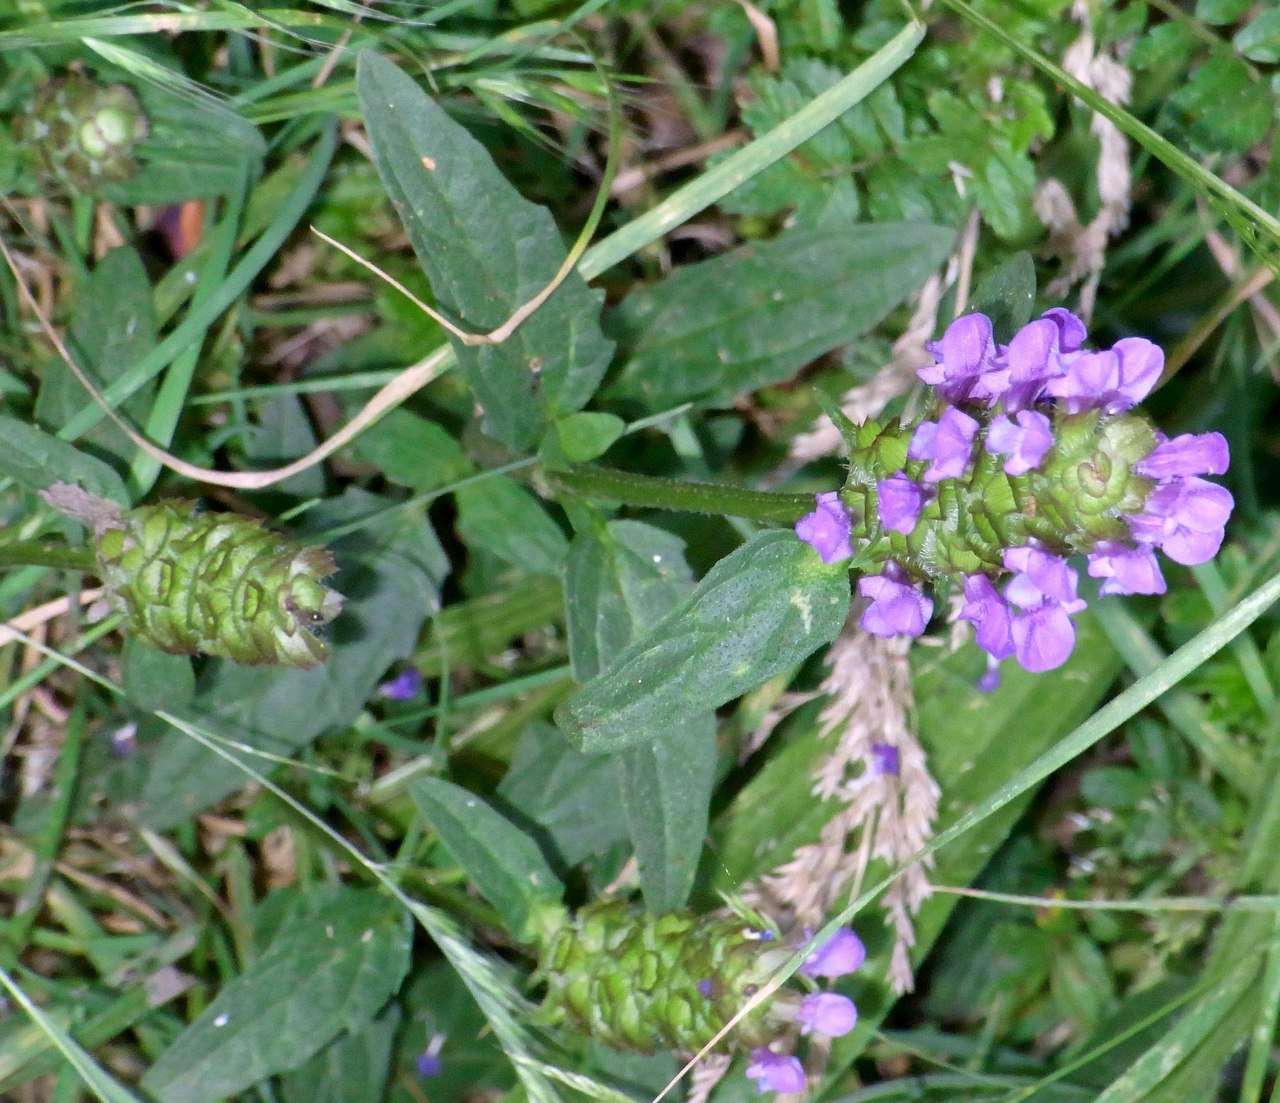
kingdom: Plantae
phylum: Tracheophyta
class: Magnoliopsida
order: Lamiales
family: Lamiaceae
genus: Prunella
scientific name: Prunella vulgaris
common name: Heal-all
